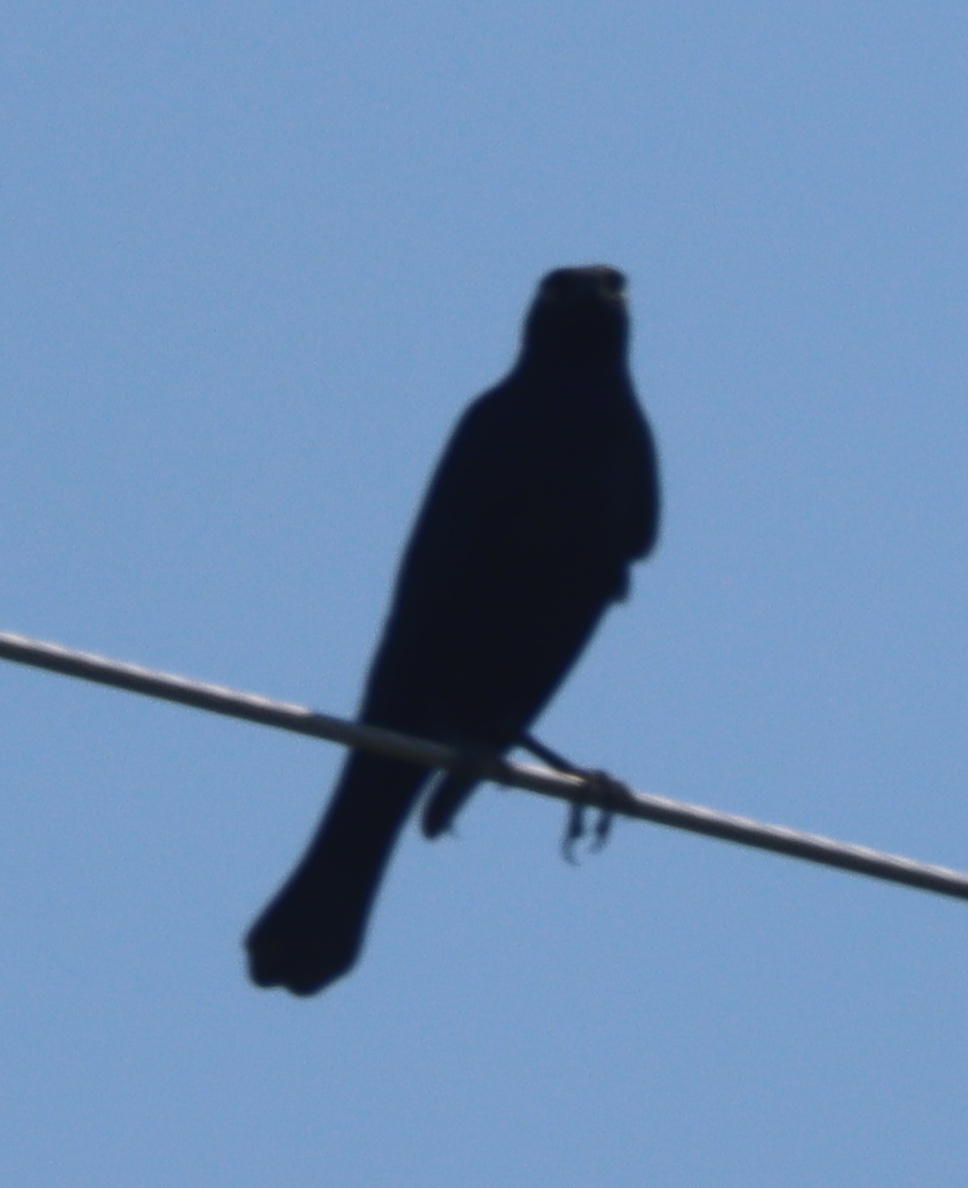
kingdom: Animalia
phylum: Chordata
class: Aves
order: Passeriformes
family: Icteridae
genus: Euphagus
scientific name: Euphagus cyanocephalus
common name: Brewer's blackbird
